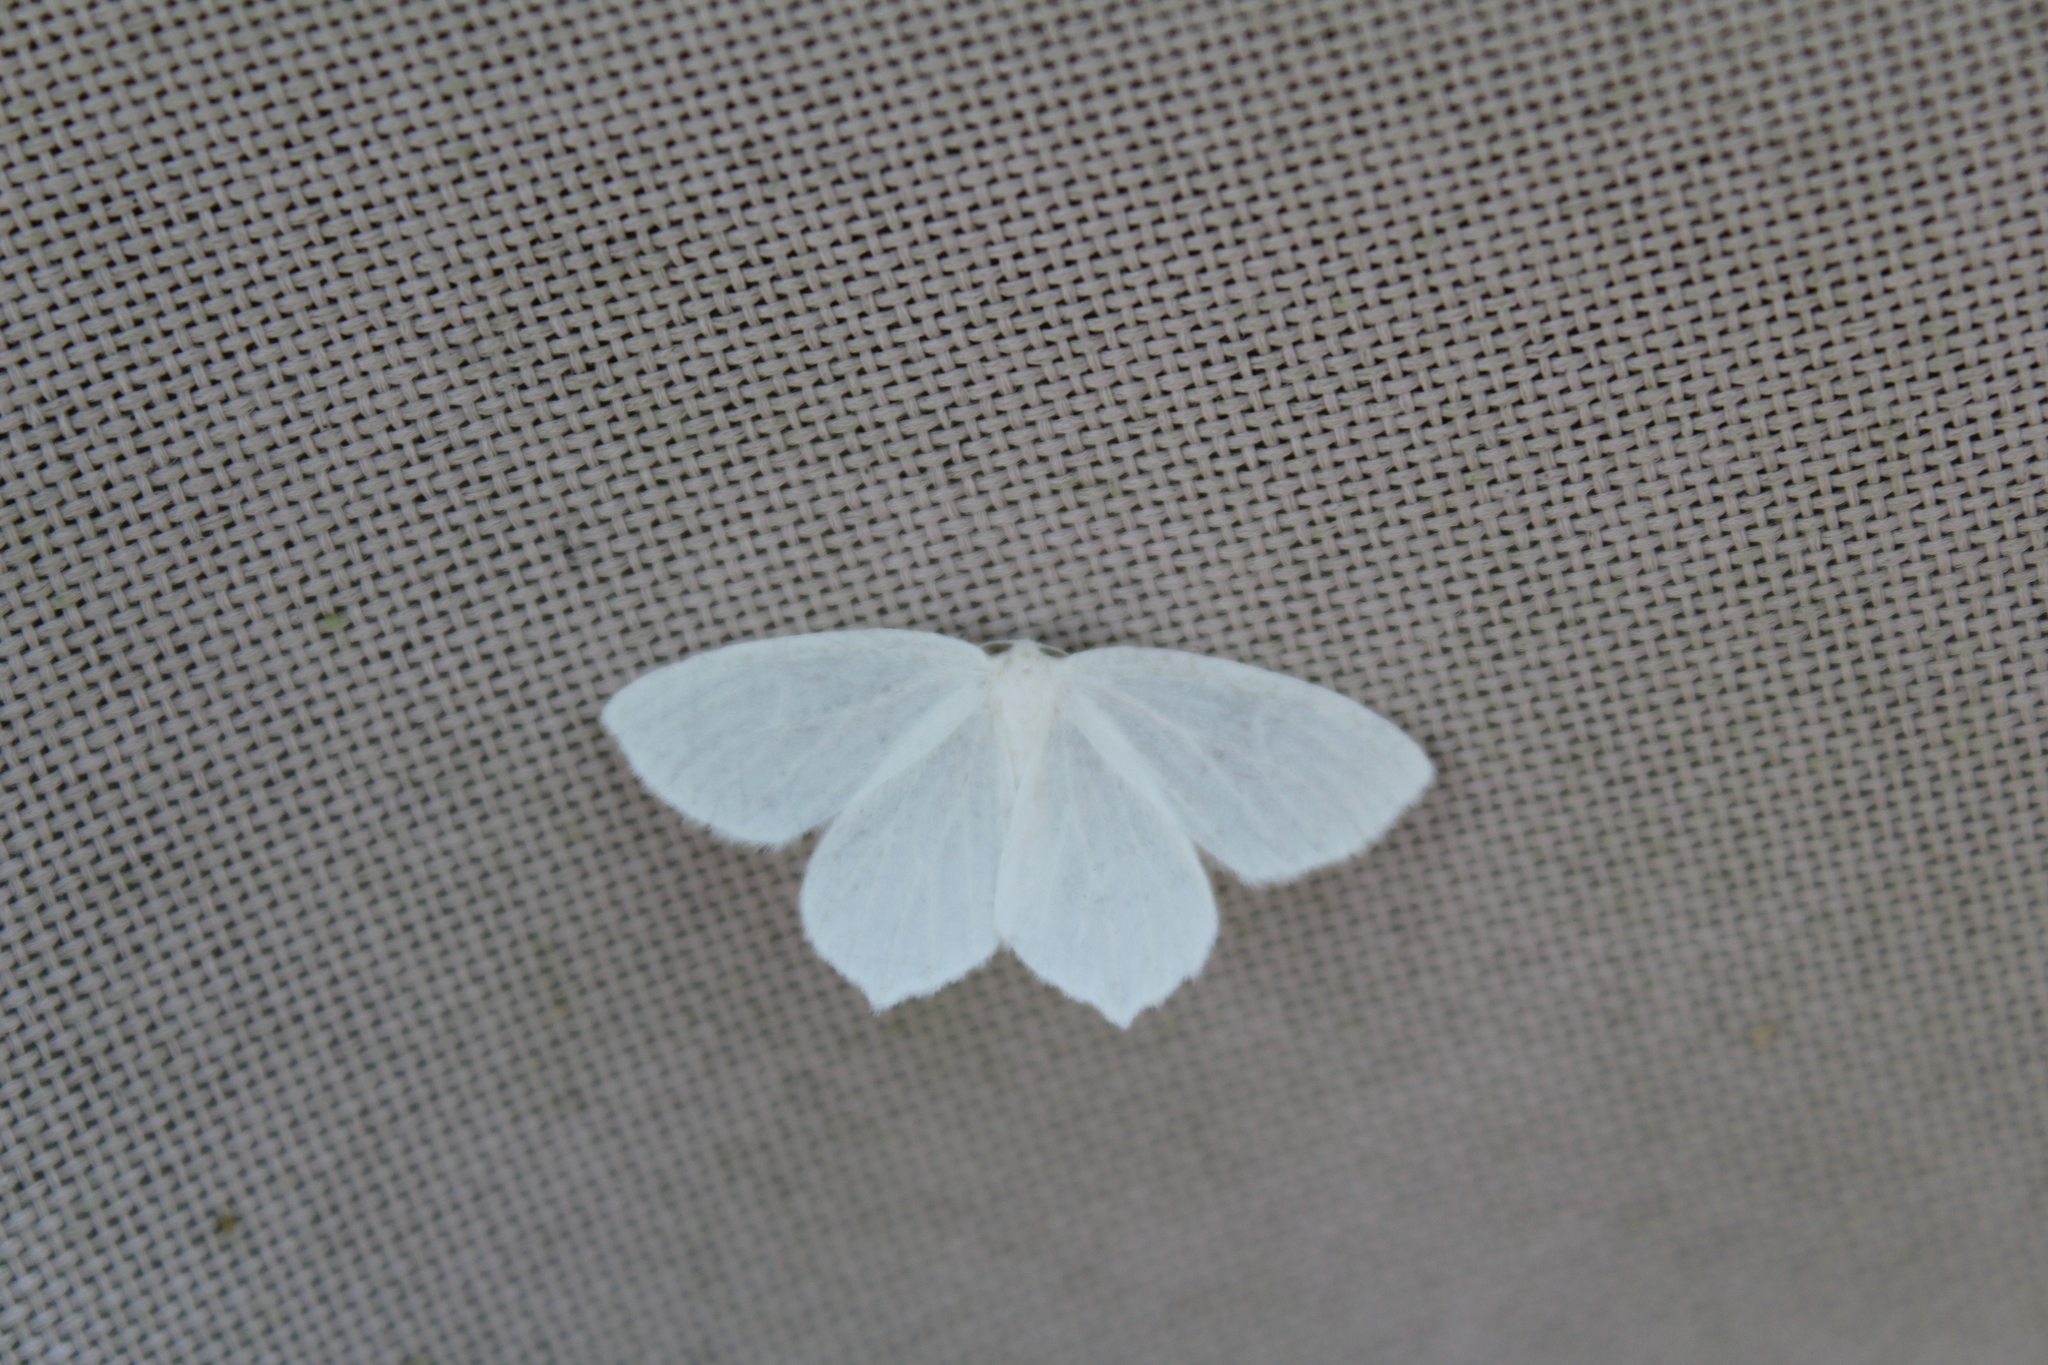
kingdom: Animalia
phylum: Arthropoda
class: Insecta
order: Lepidoptera
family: Geometridae
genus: Eugonobapta
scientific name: Eugonobapta nivosaria
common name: Snowy geometer
